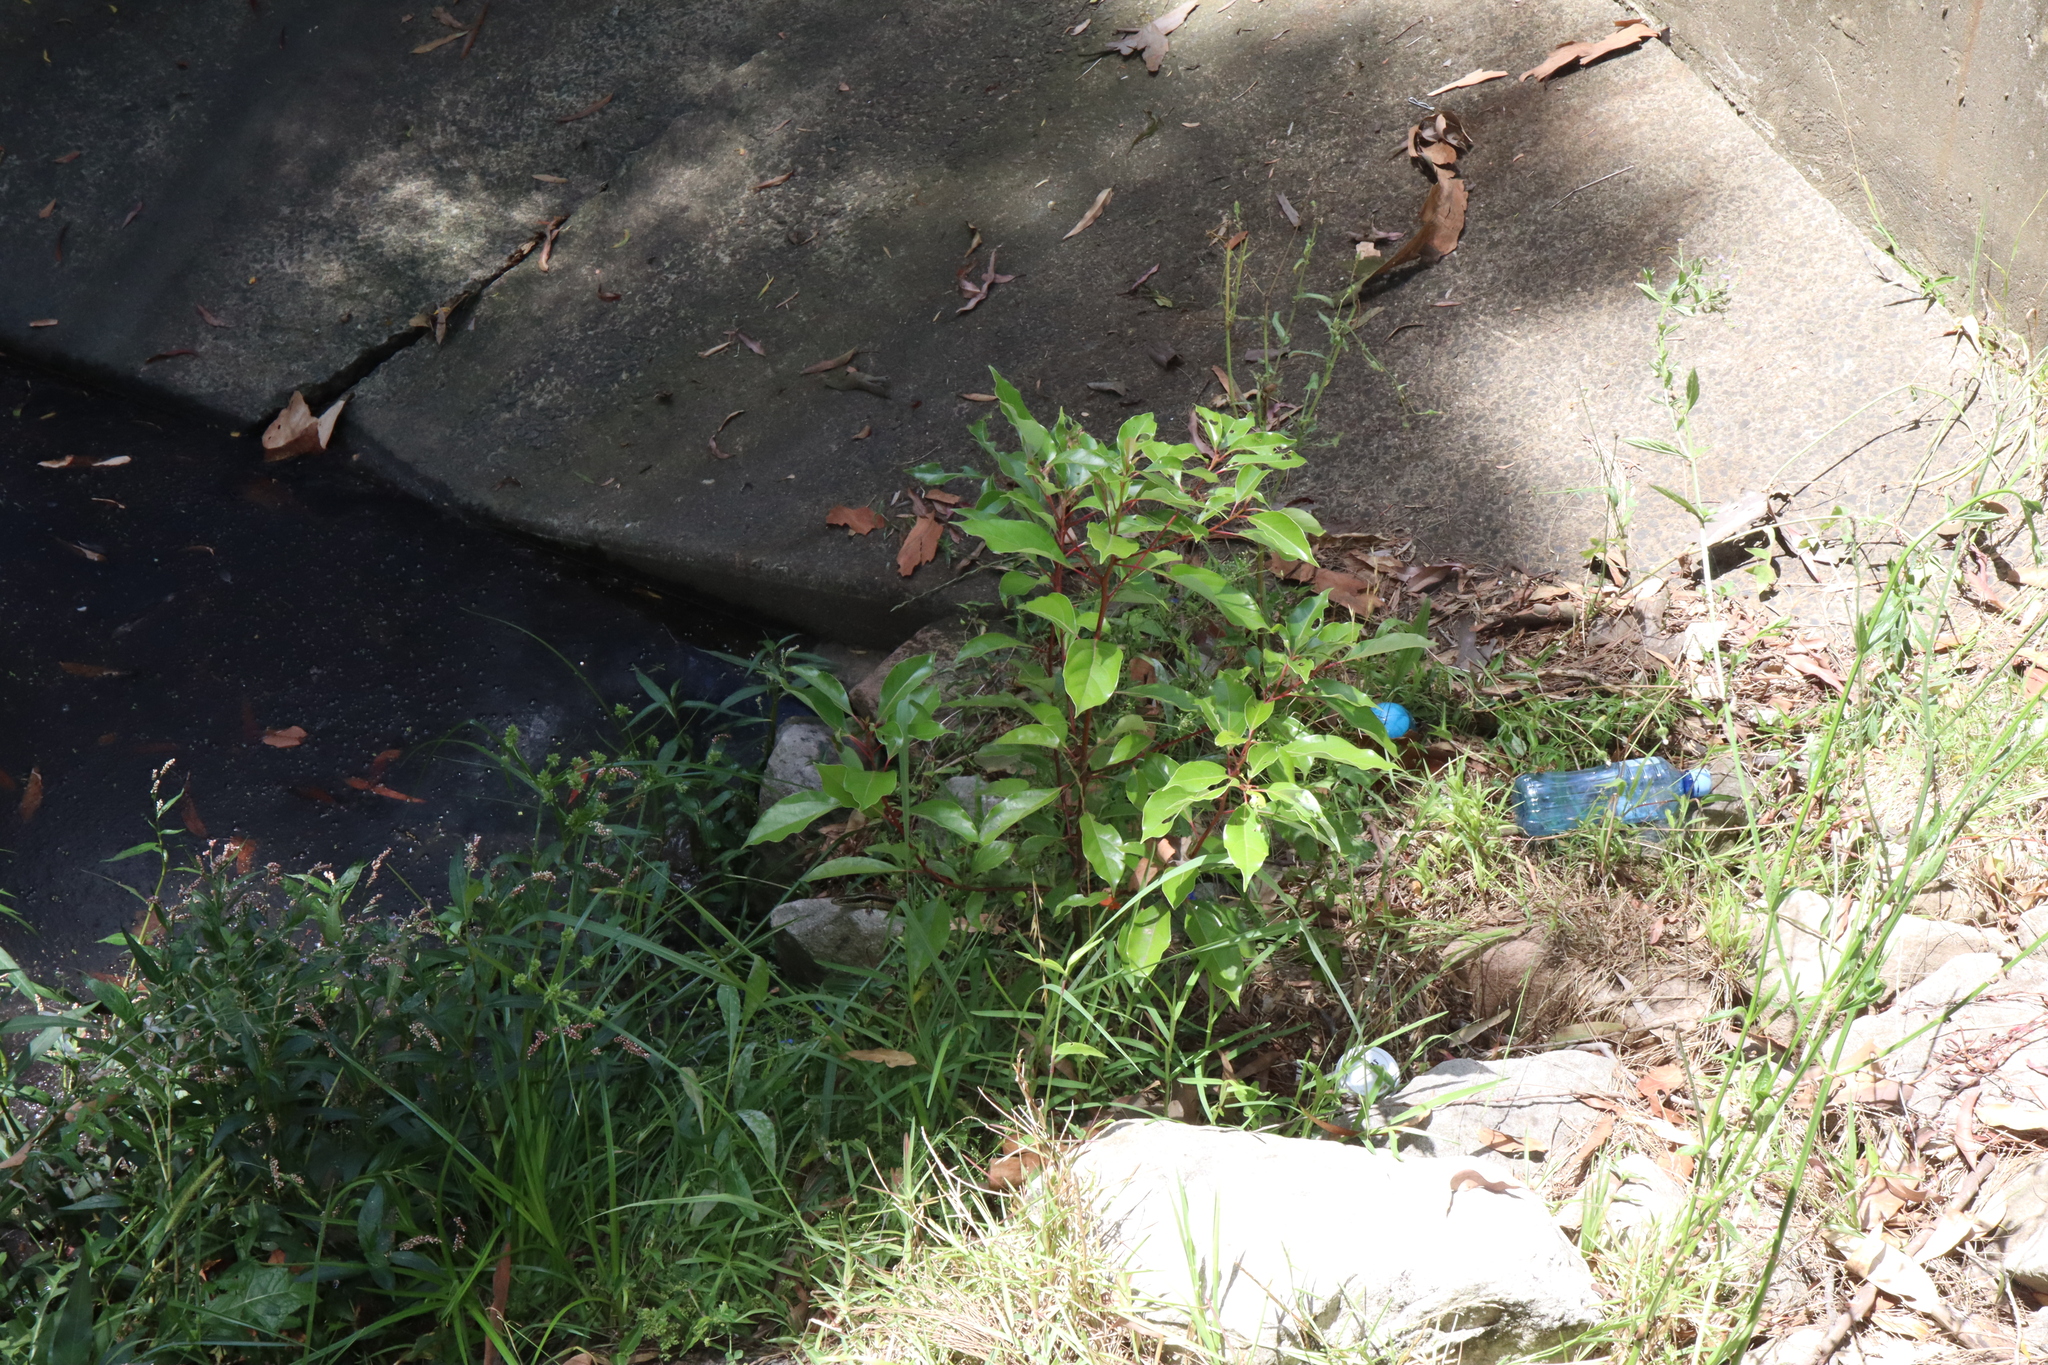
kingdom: Plantae
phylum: Tracheophyta
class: Magnoliopsida
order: Laurales
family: Lauraceae
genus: Cinnamomum
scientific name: Cinnamomum camphora
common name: Camphortree
